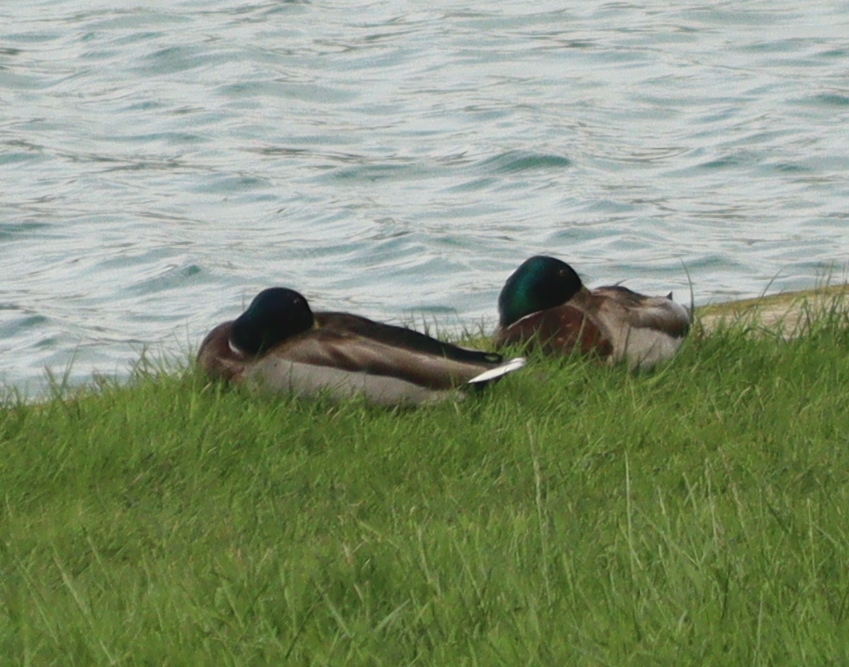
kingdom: Animalia
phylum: Chordata
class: Aves
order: Anseriformes
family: Anatidae
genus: Anas
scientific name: Anas platyrhynchos
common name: Mallard
